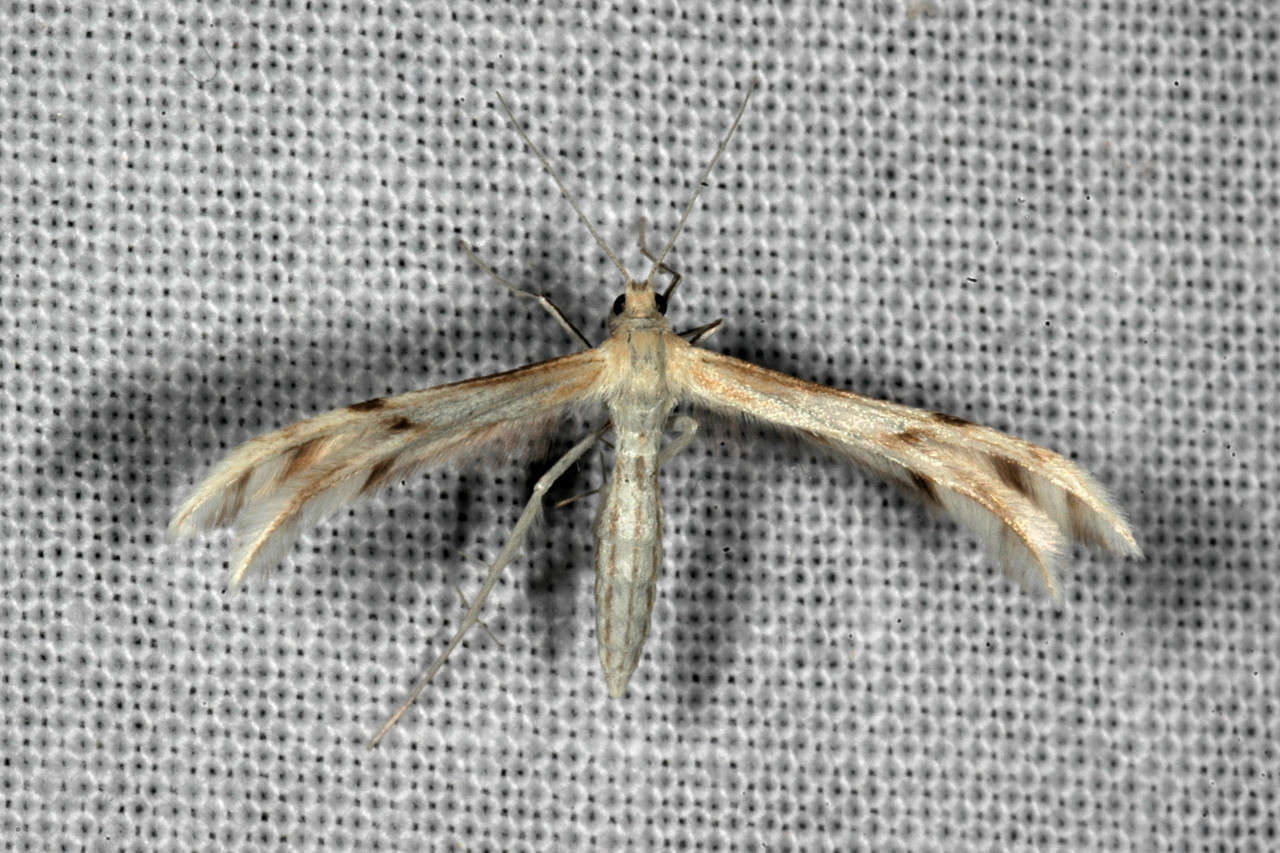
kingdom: Animalia
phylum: Arthropoda
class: Insecta
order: Lepidoptera
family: Pterophoridae
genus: Wheeleria
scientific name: Wheeleria spilodactylus
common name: Horehound plume
